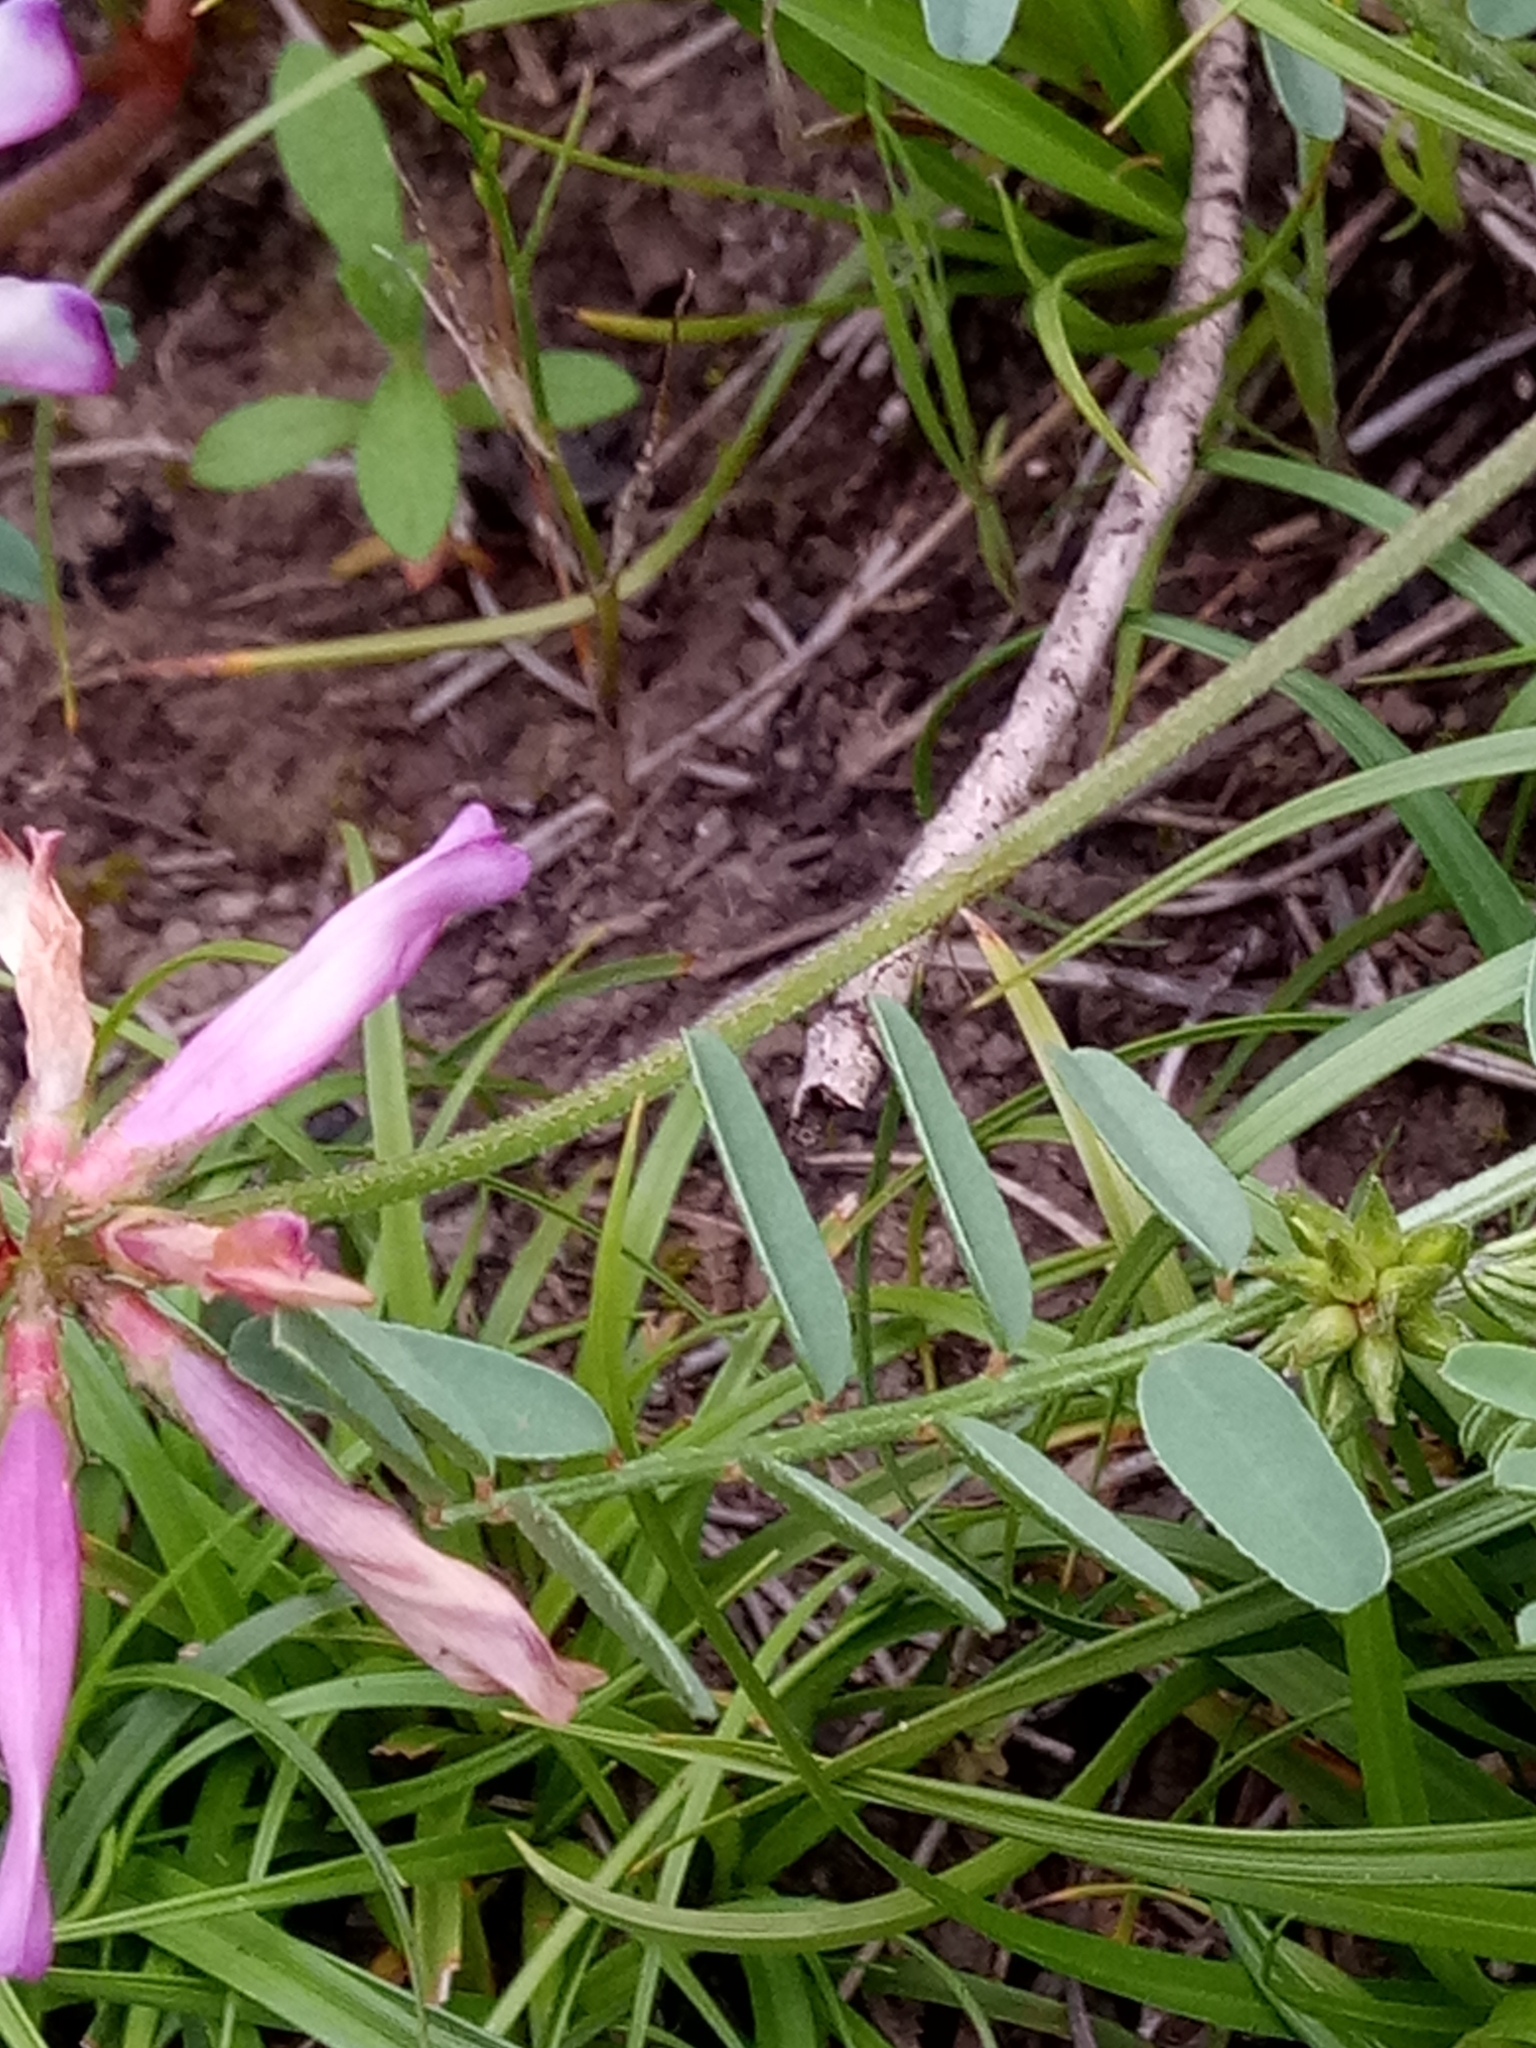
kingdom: Plantae
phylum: Tracheophyta
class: Magnoliopsida
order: Fabales
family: Fabaceae
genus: Sulla
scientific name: Sulla glomerata
